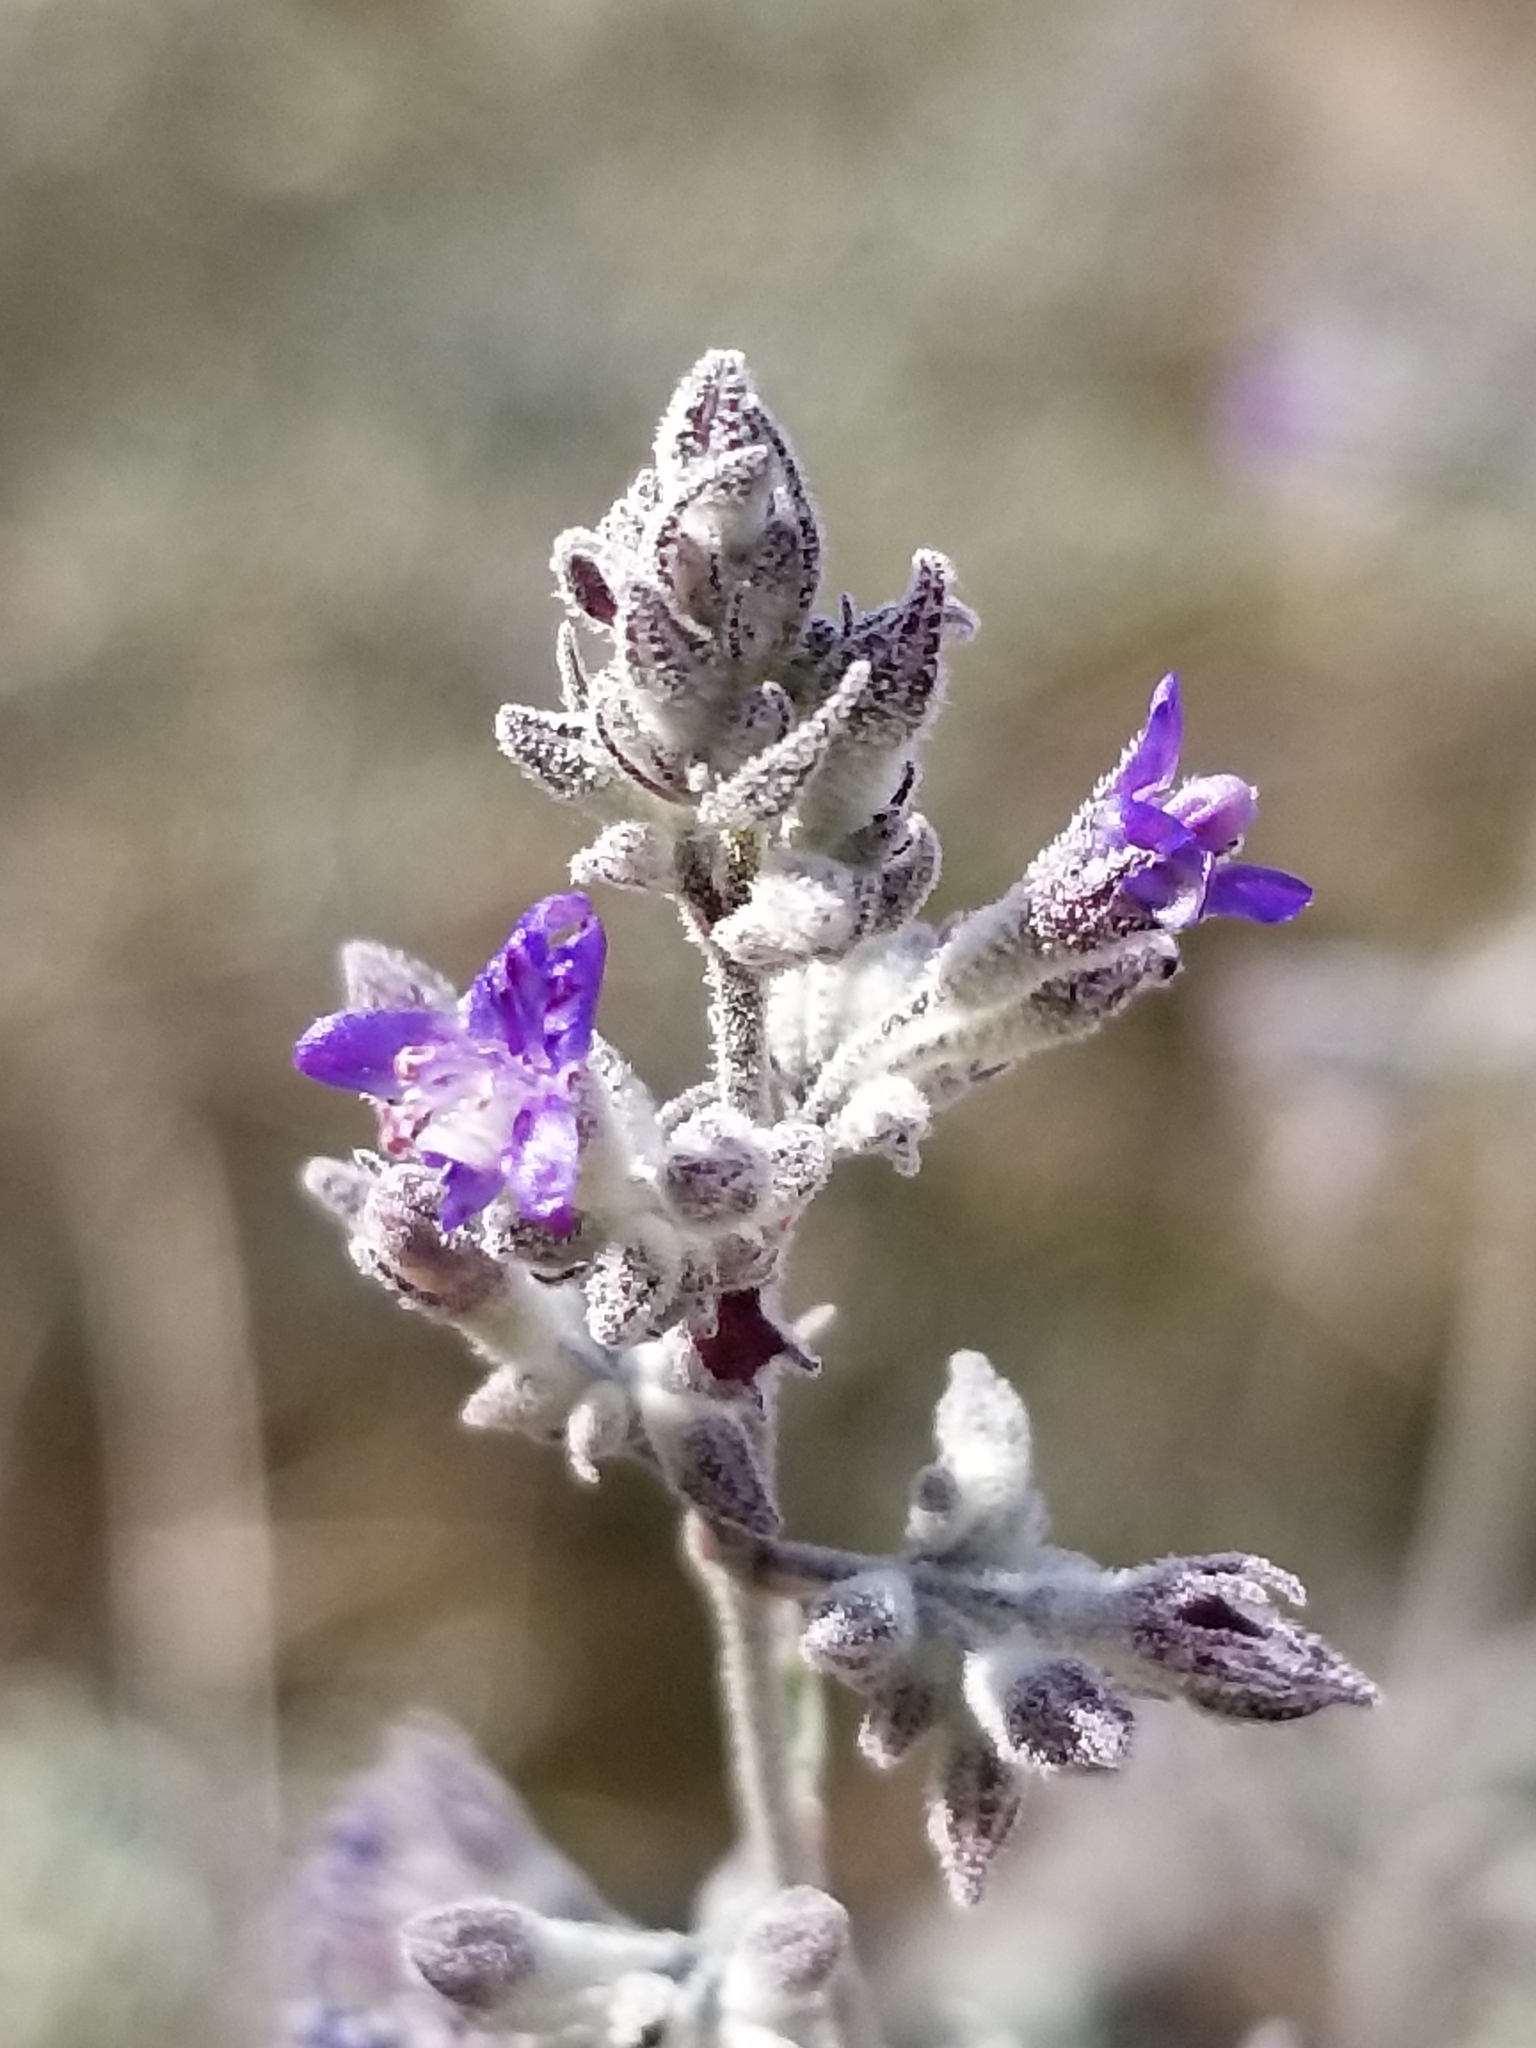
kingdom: Plantae
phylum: Tracheophyta
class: Magnoliopsida
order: Lamiales
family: Lamiaceae
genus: Condea
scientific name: Condea emoryi
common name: Chia
